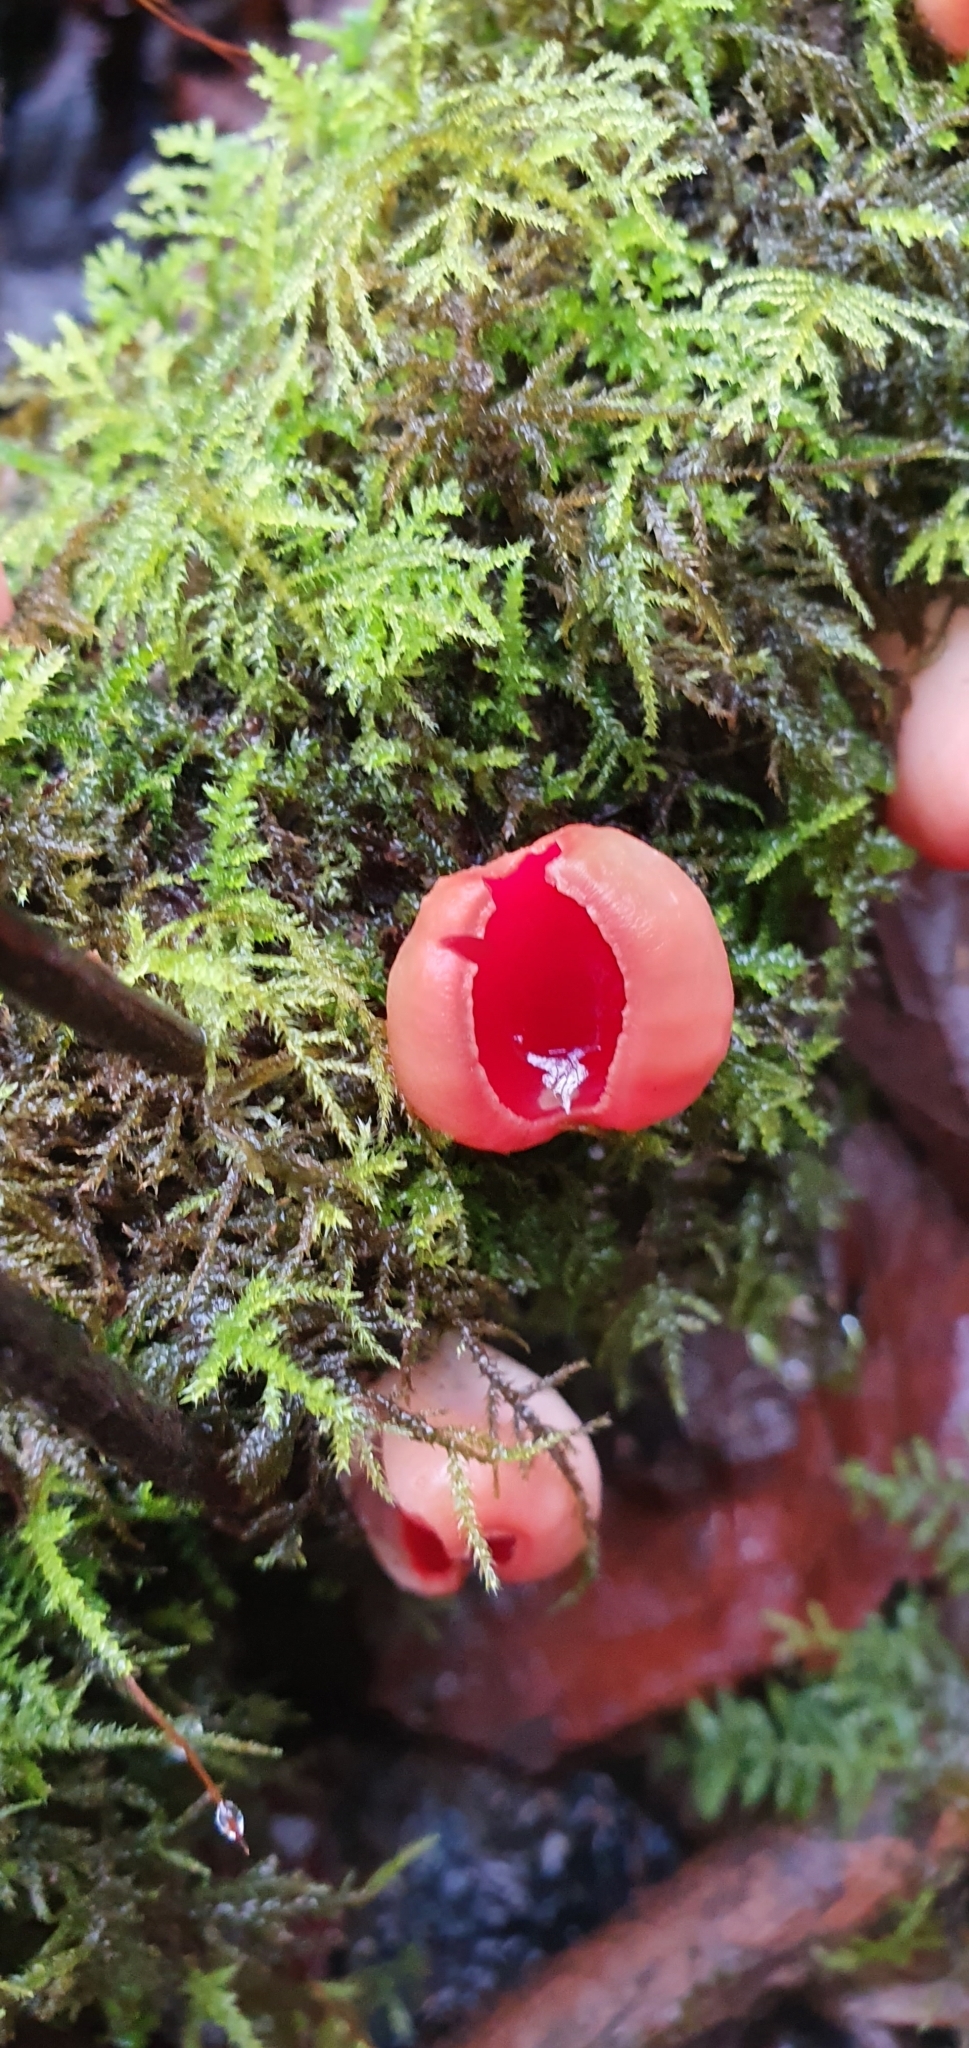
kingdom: Fungi
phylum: Ascomycota
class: Pezizomycetes
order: Pezizales
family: Sarcoscyphaceae
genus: Sarcoscypha
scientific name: Sarcoscypha
